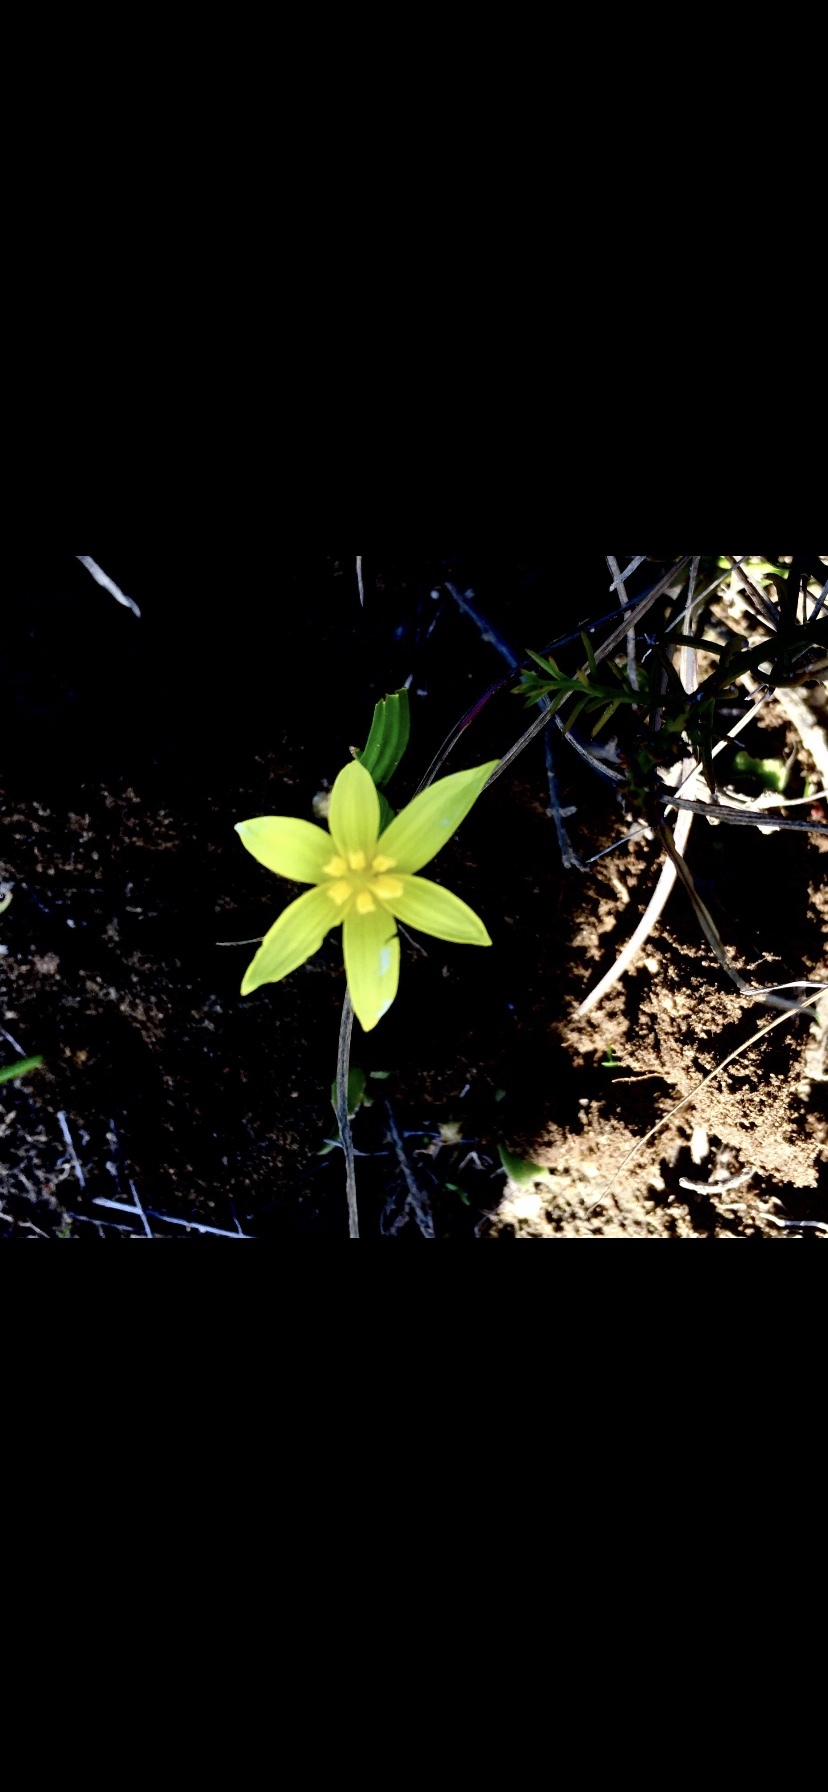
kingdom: Plantae
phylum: Tracheophyta
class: Liliopsida
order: Asparagales
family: Hypoxidaceae
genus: Empodium
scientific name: Empodium plicatum
